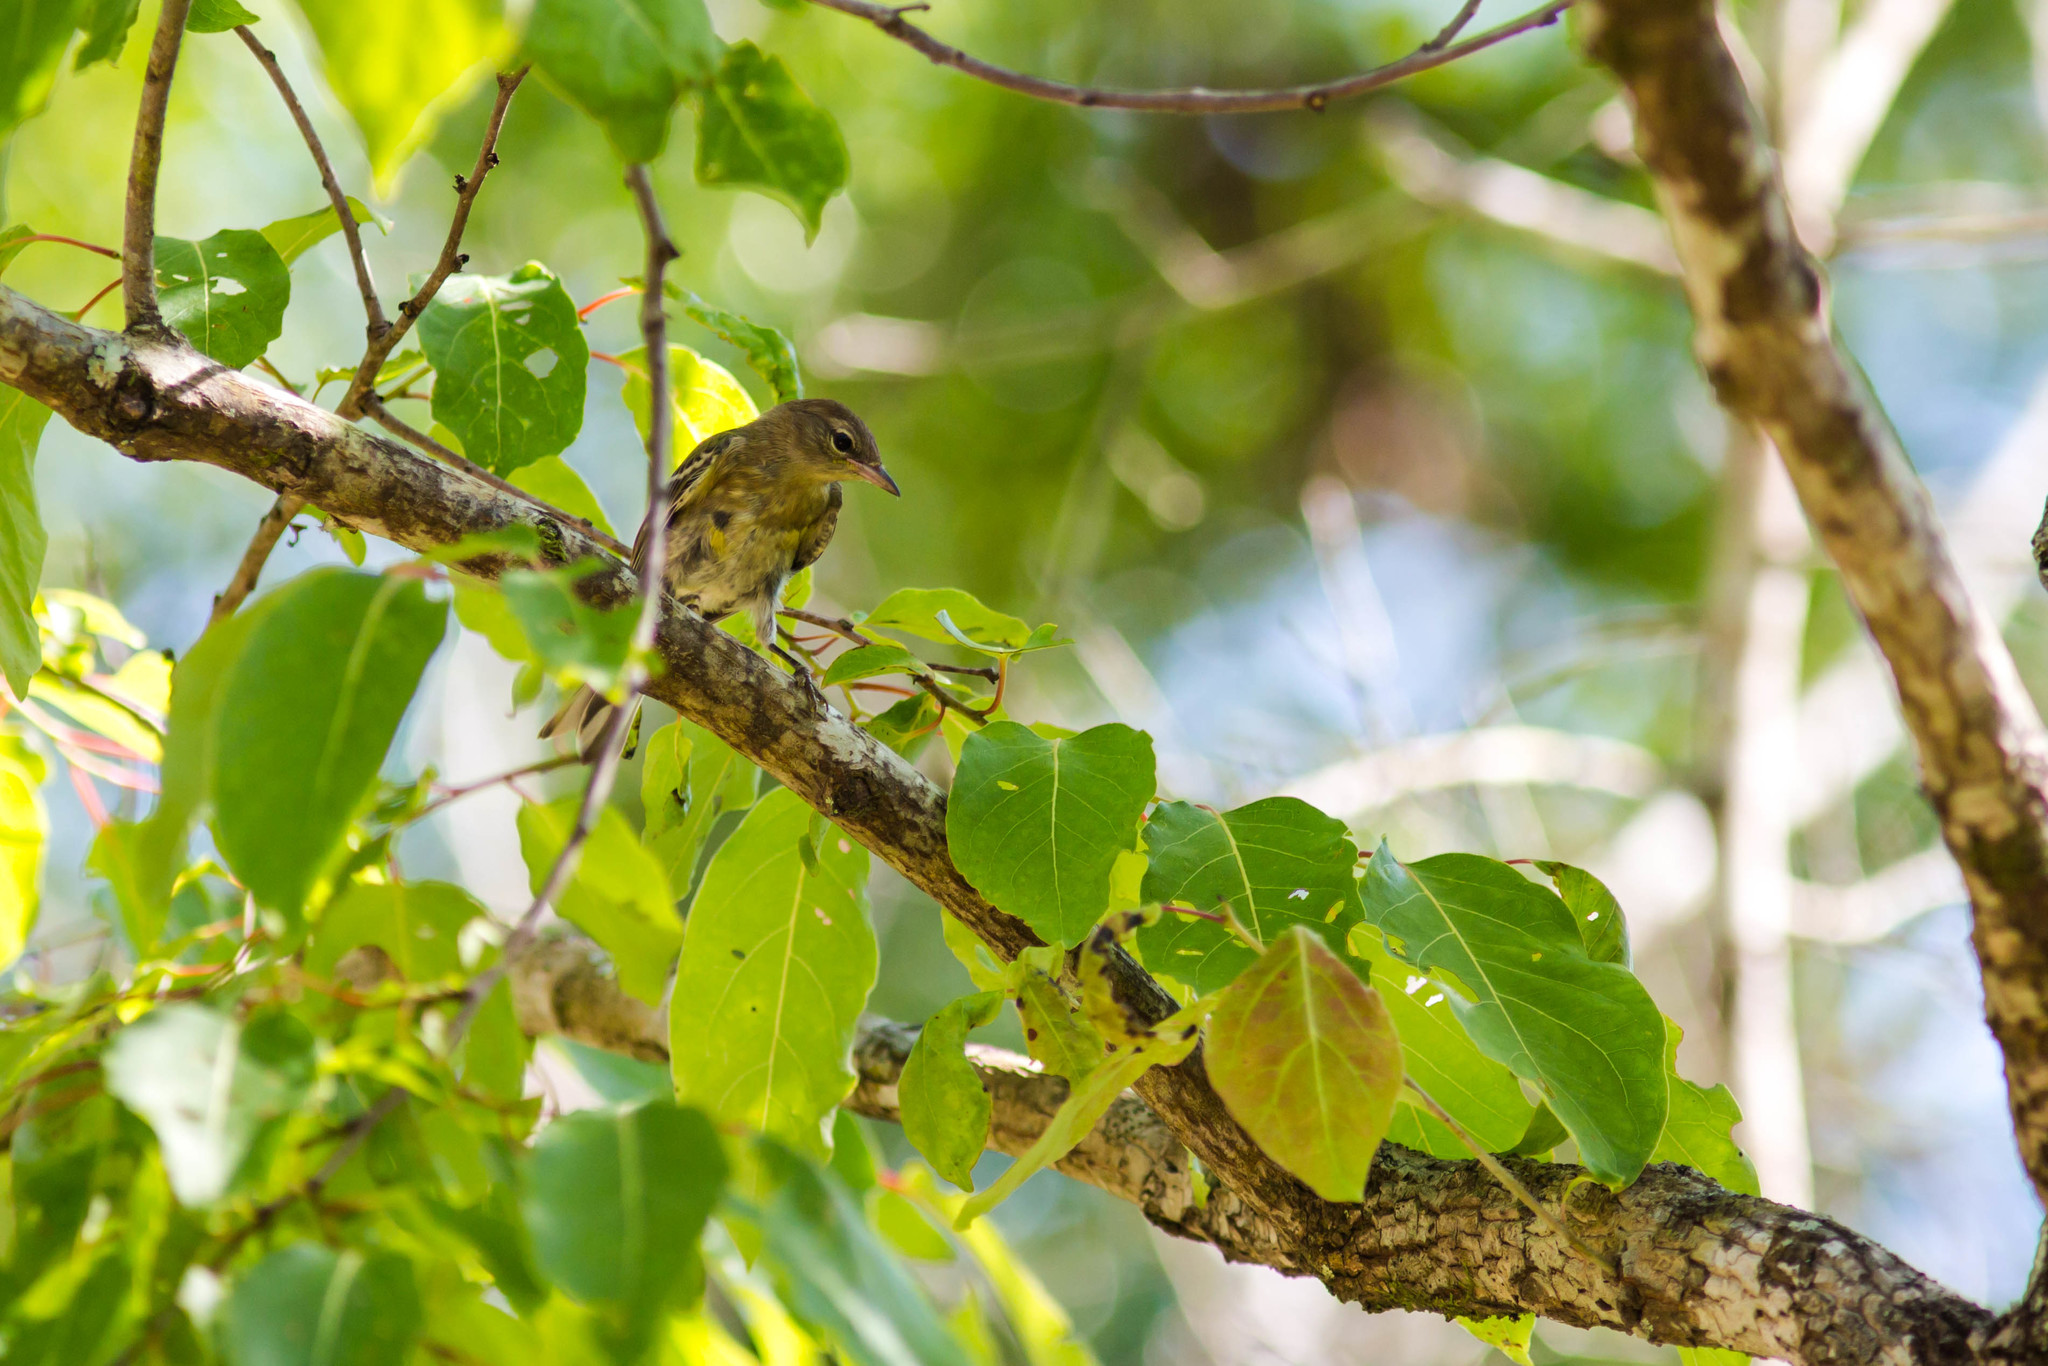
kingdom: Animalia
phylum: Chordata
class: Aves
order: Passeriformes
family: Parulidae
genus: Setophaga
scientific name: Setophaga pinus
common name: Pine warbler
